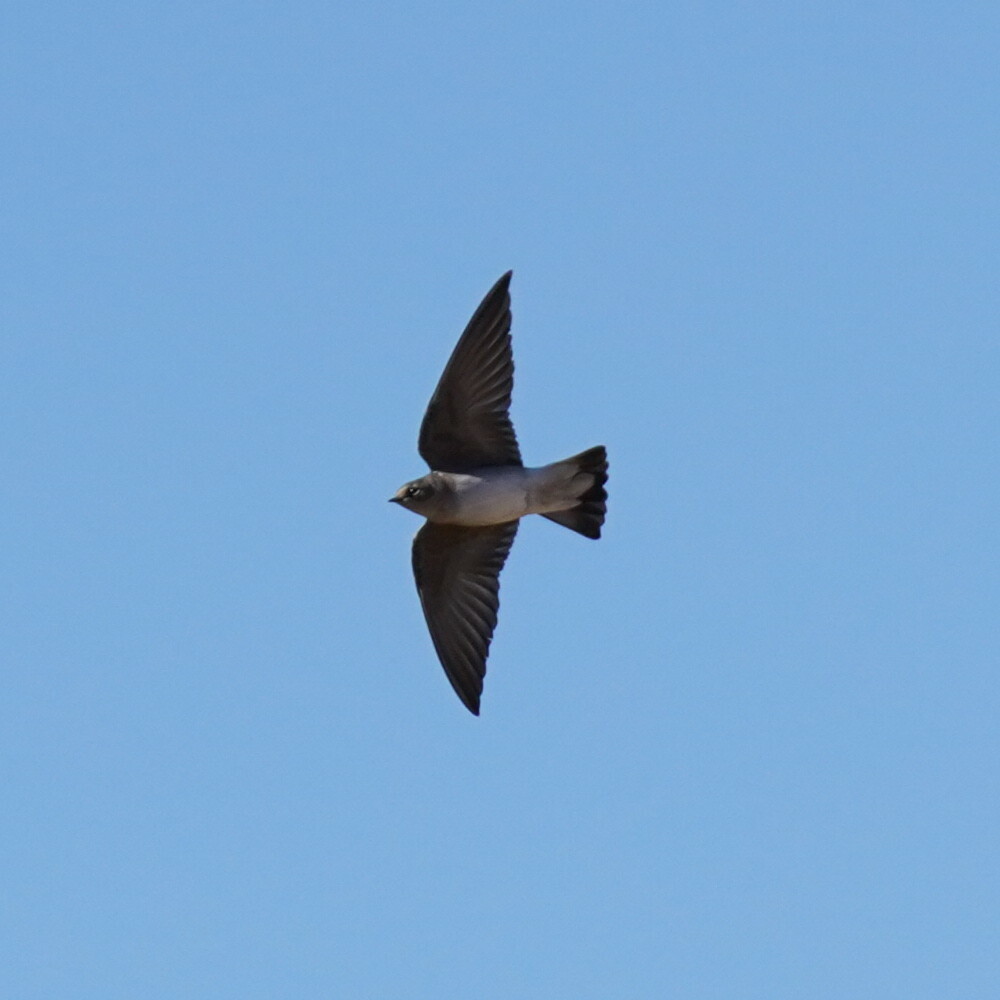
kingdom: Animalia
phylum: Chordata
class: Aves
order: Passeriformes
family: Hirundinidae
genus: Stelgidopteryx
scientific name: Stelgidopteryx serripennis
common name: Northern rough-winged swallow
